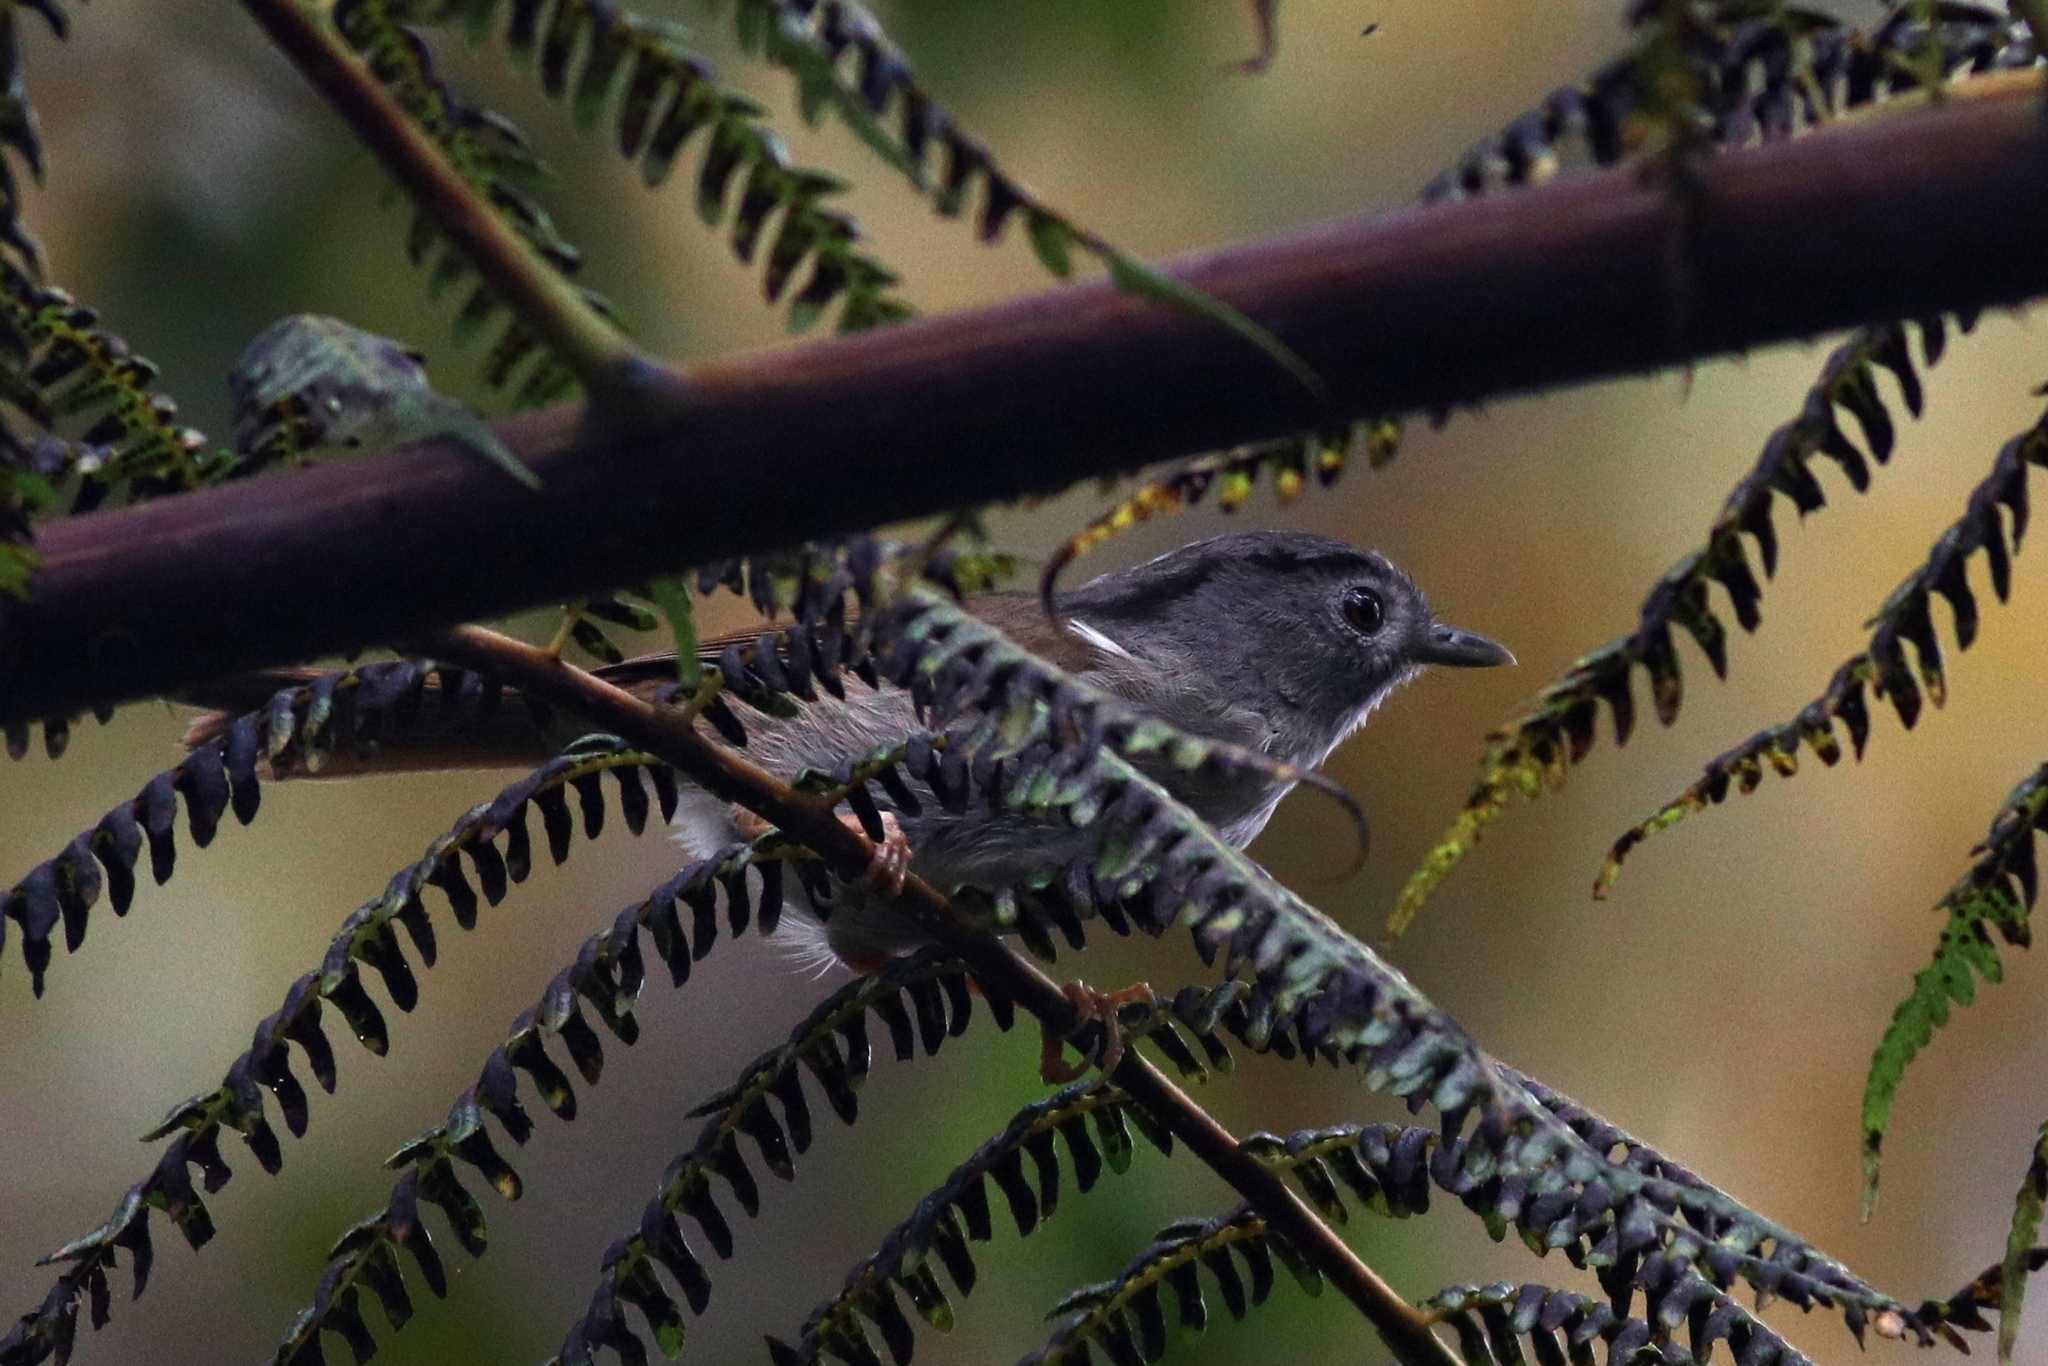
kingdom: Animalia
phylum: Chordata
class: Aves
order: Passeriformes
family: Pellorneidae
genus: Alcippe
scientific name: Alcippe peracensis
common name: Mountain fulvetta
